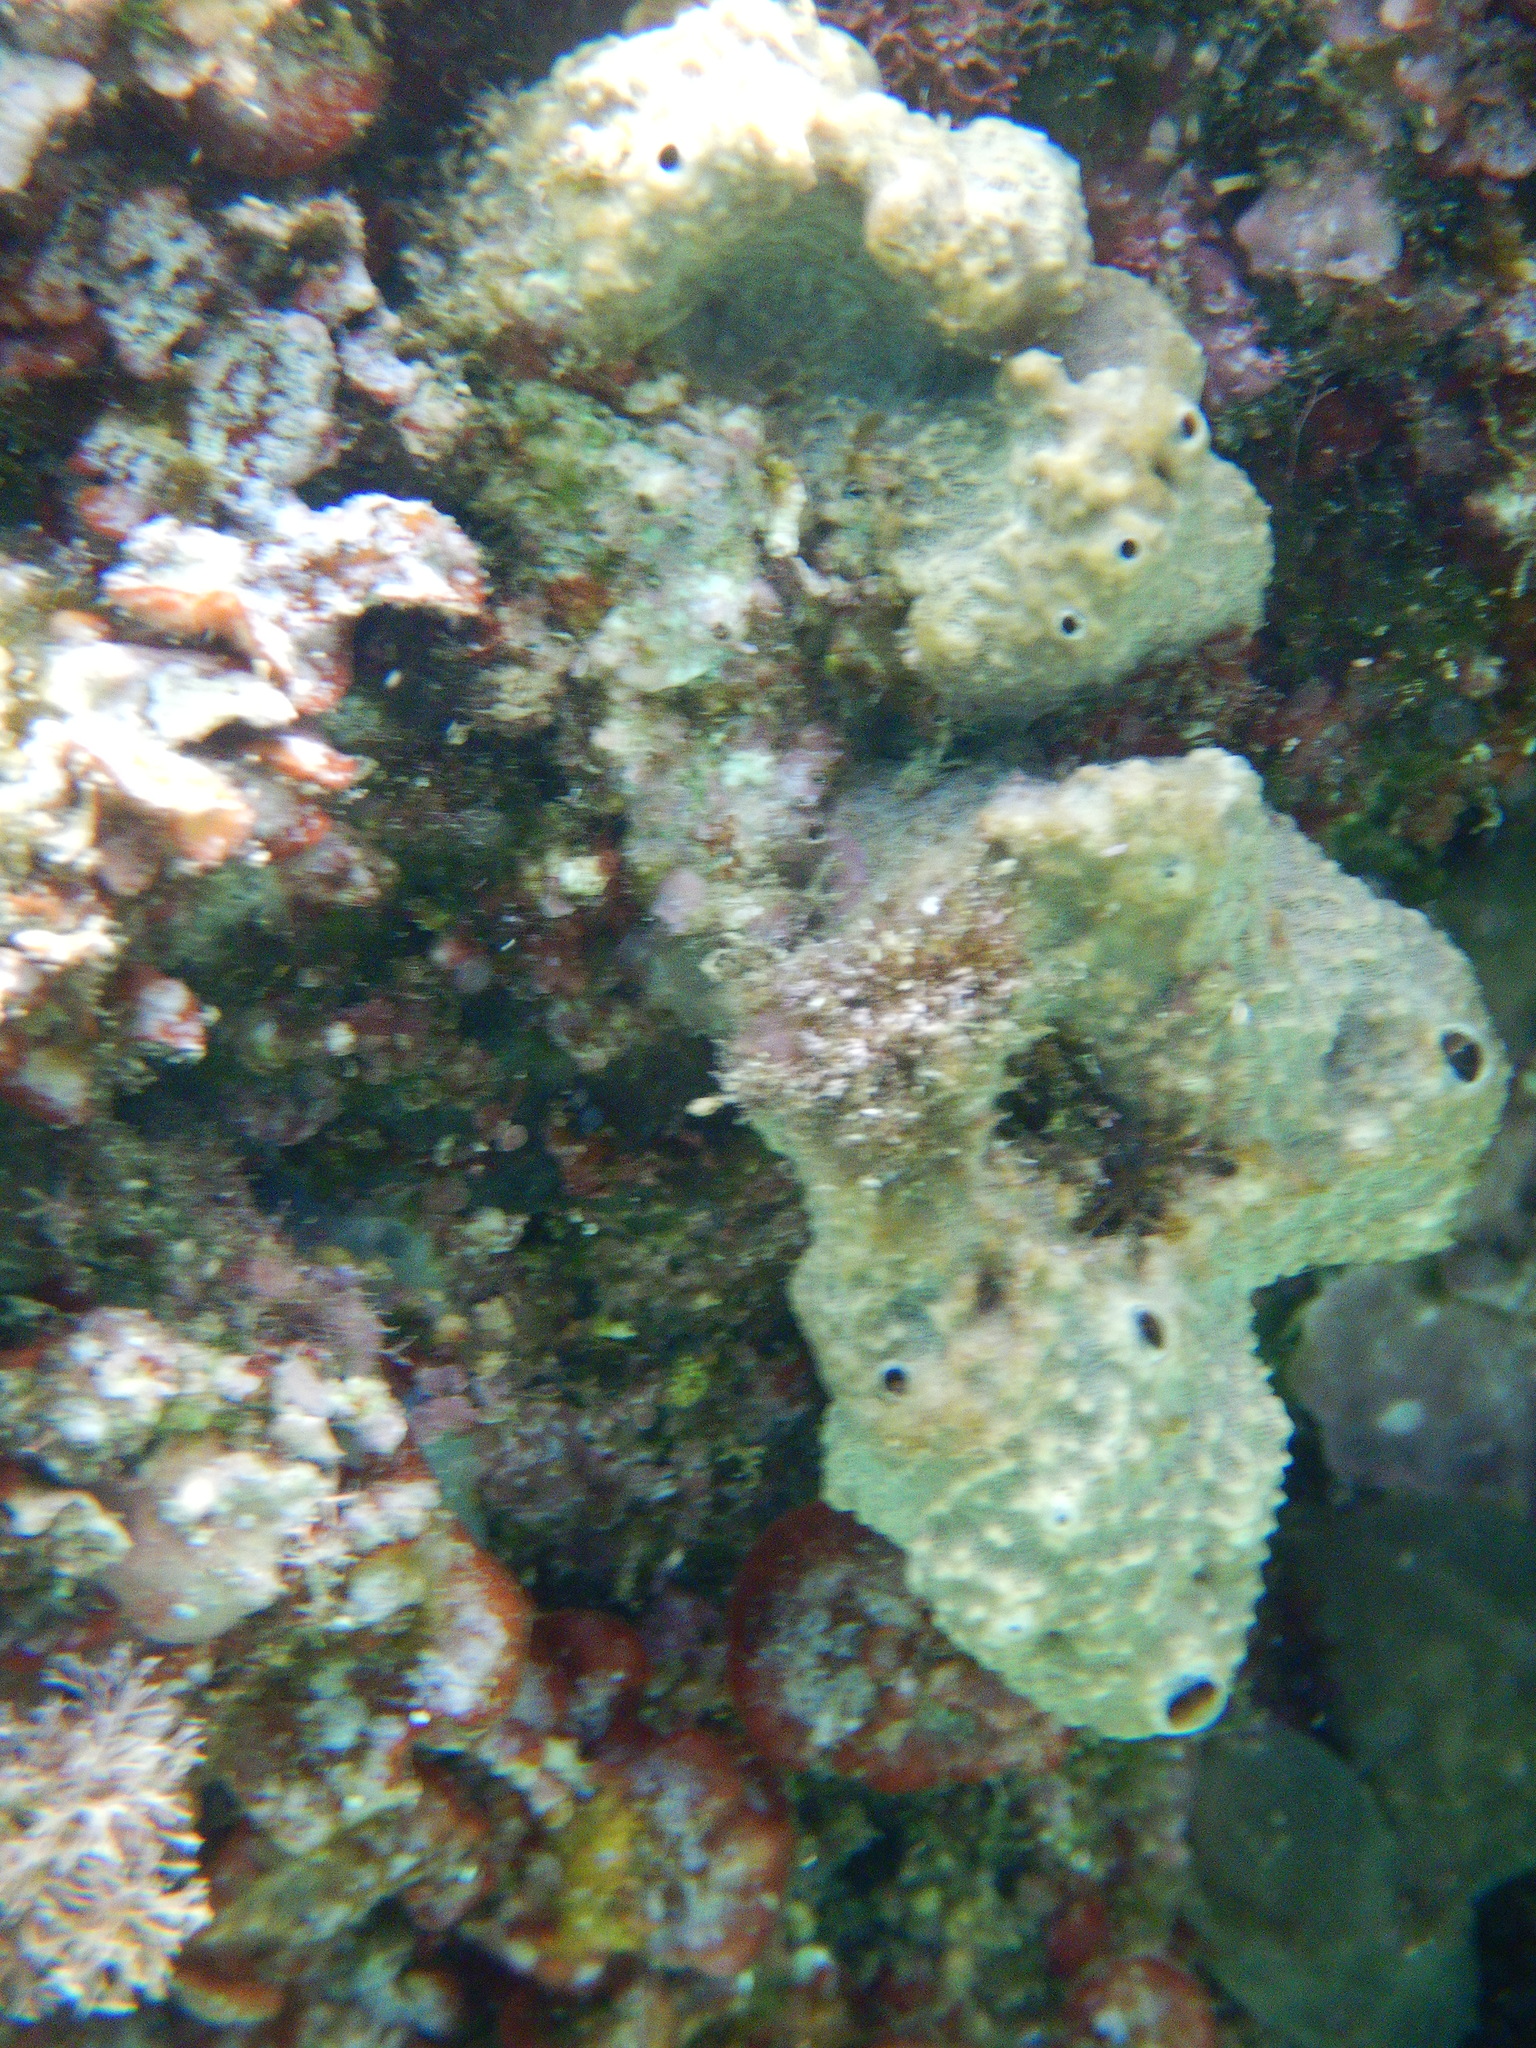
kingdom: Animalia
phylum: Porifera
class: Demospongiae
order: Dictyoceratida
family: Irciniidae
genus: Ircinia
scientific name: Ircinia variabilis
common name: Variable loggerhead sponge
